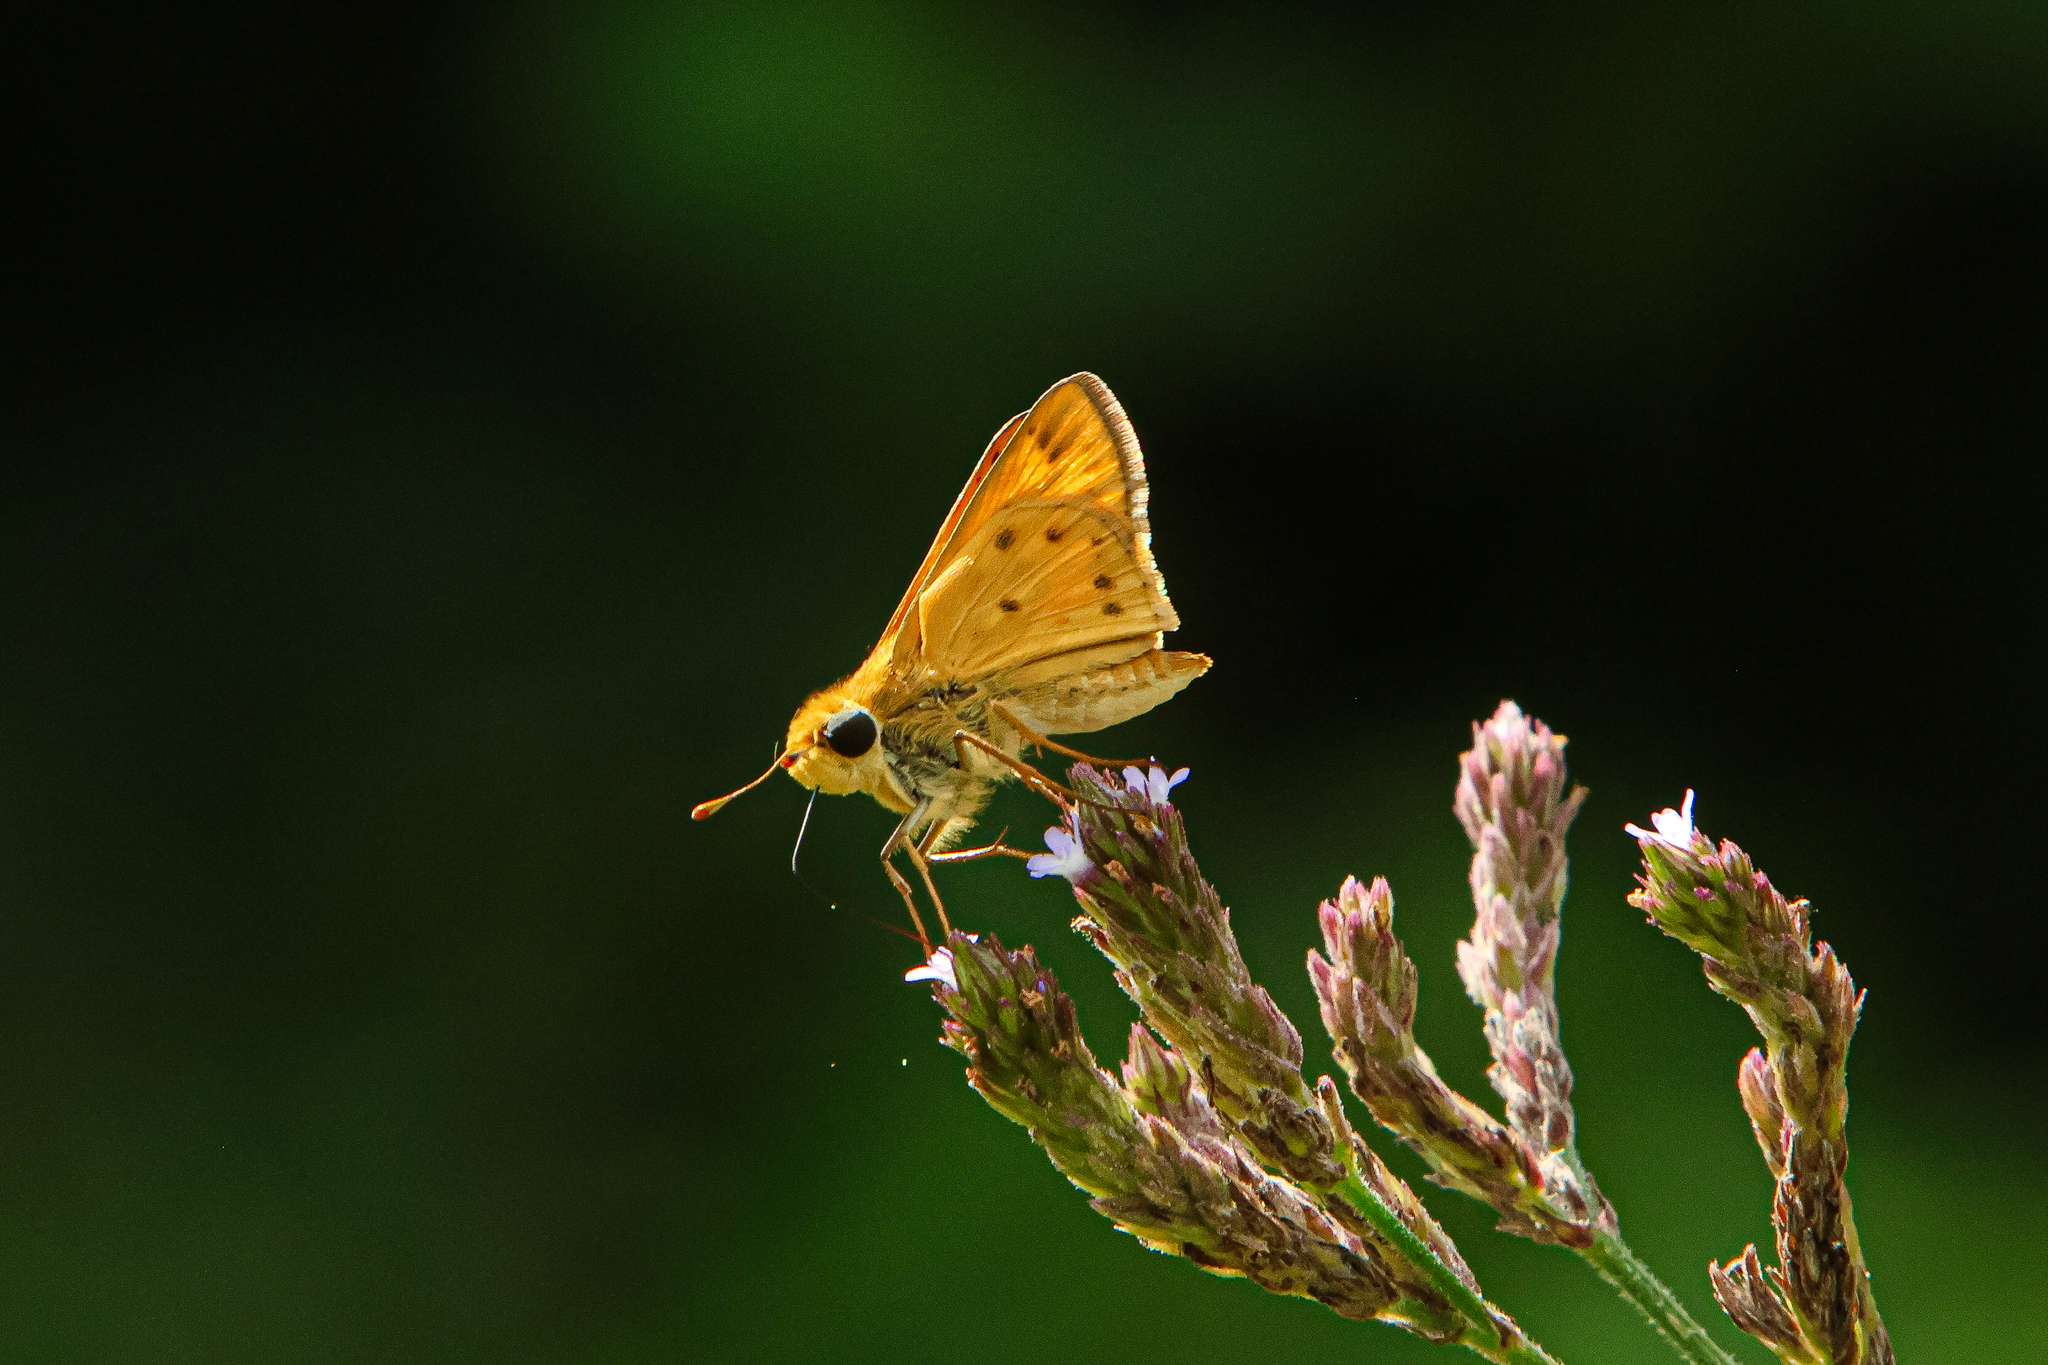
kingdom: Animalia
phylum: Arthropoda
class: Insecta
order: Lepidoptera
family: Hesperiidae
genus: Hylephila
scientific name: Hylephila phyleus
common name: Fiery skipper
